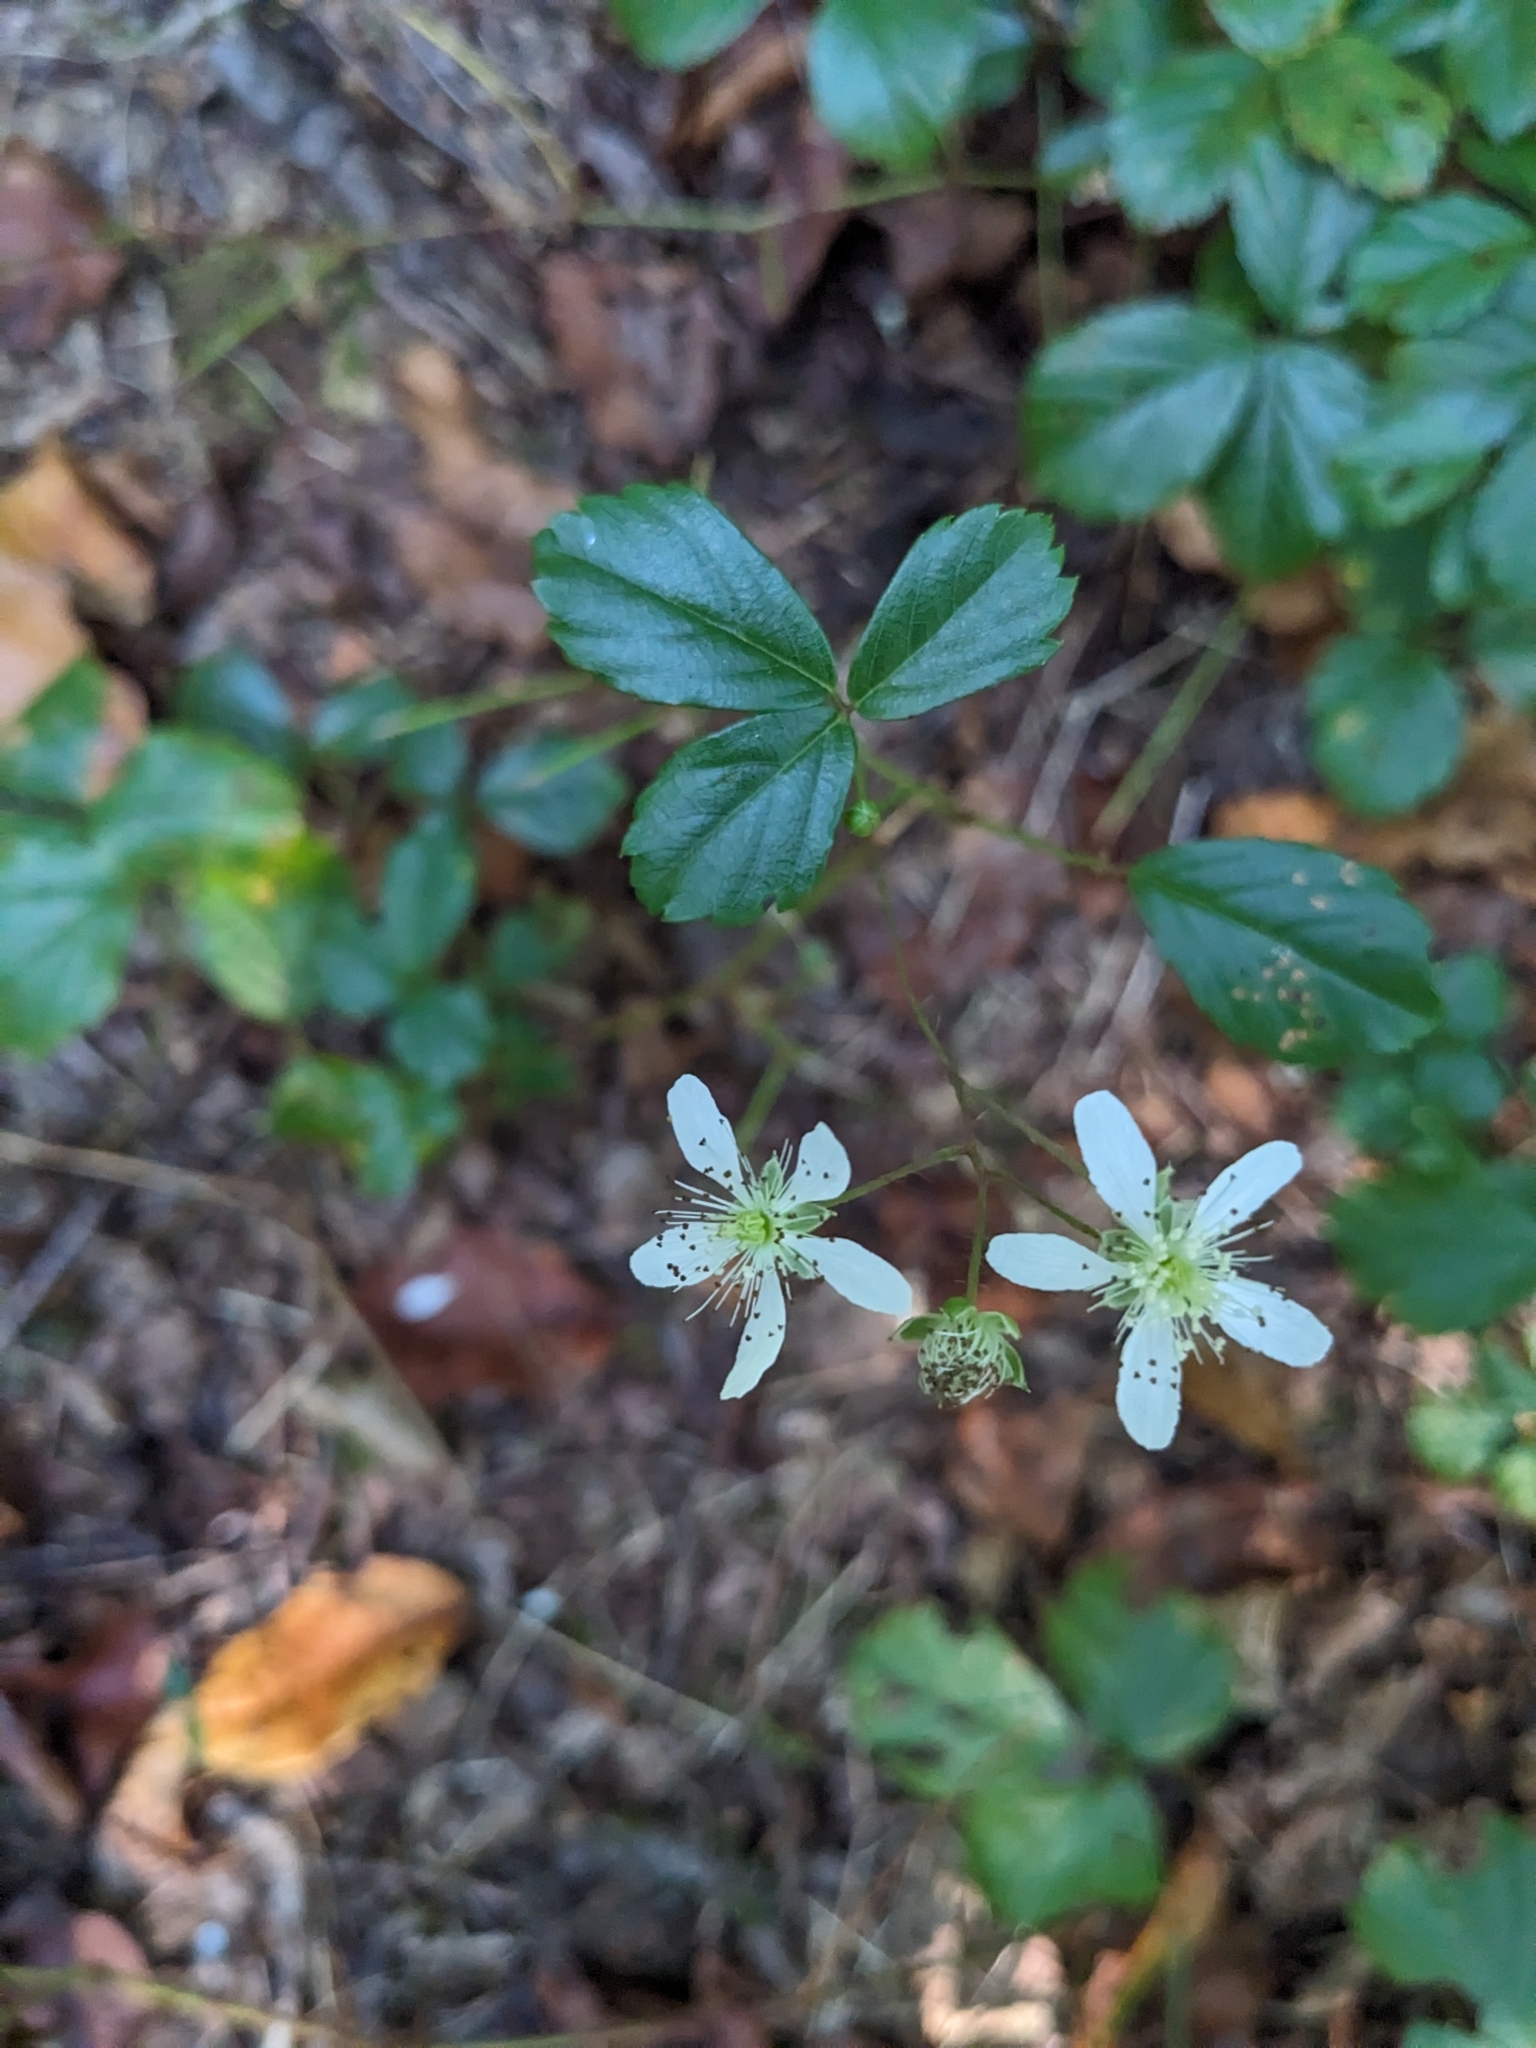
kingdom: Plantae
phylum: Tracheophyta
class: Magnoliopsida
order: Rosales
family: Rosaceae
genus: Rubus
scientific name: Rubus hispidus
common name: Running blackberry
